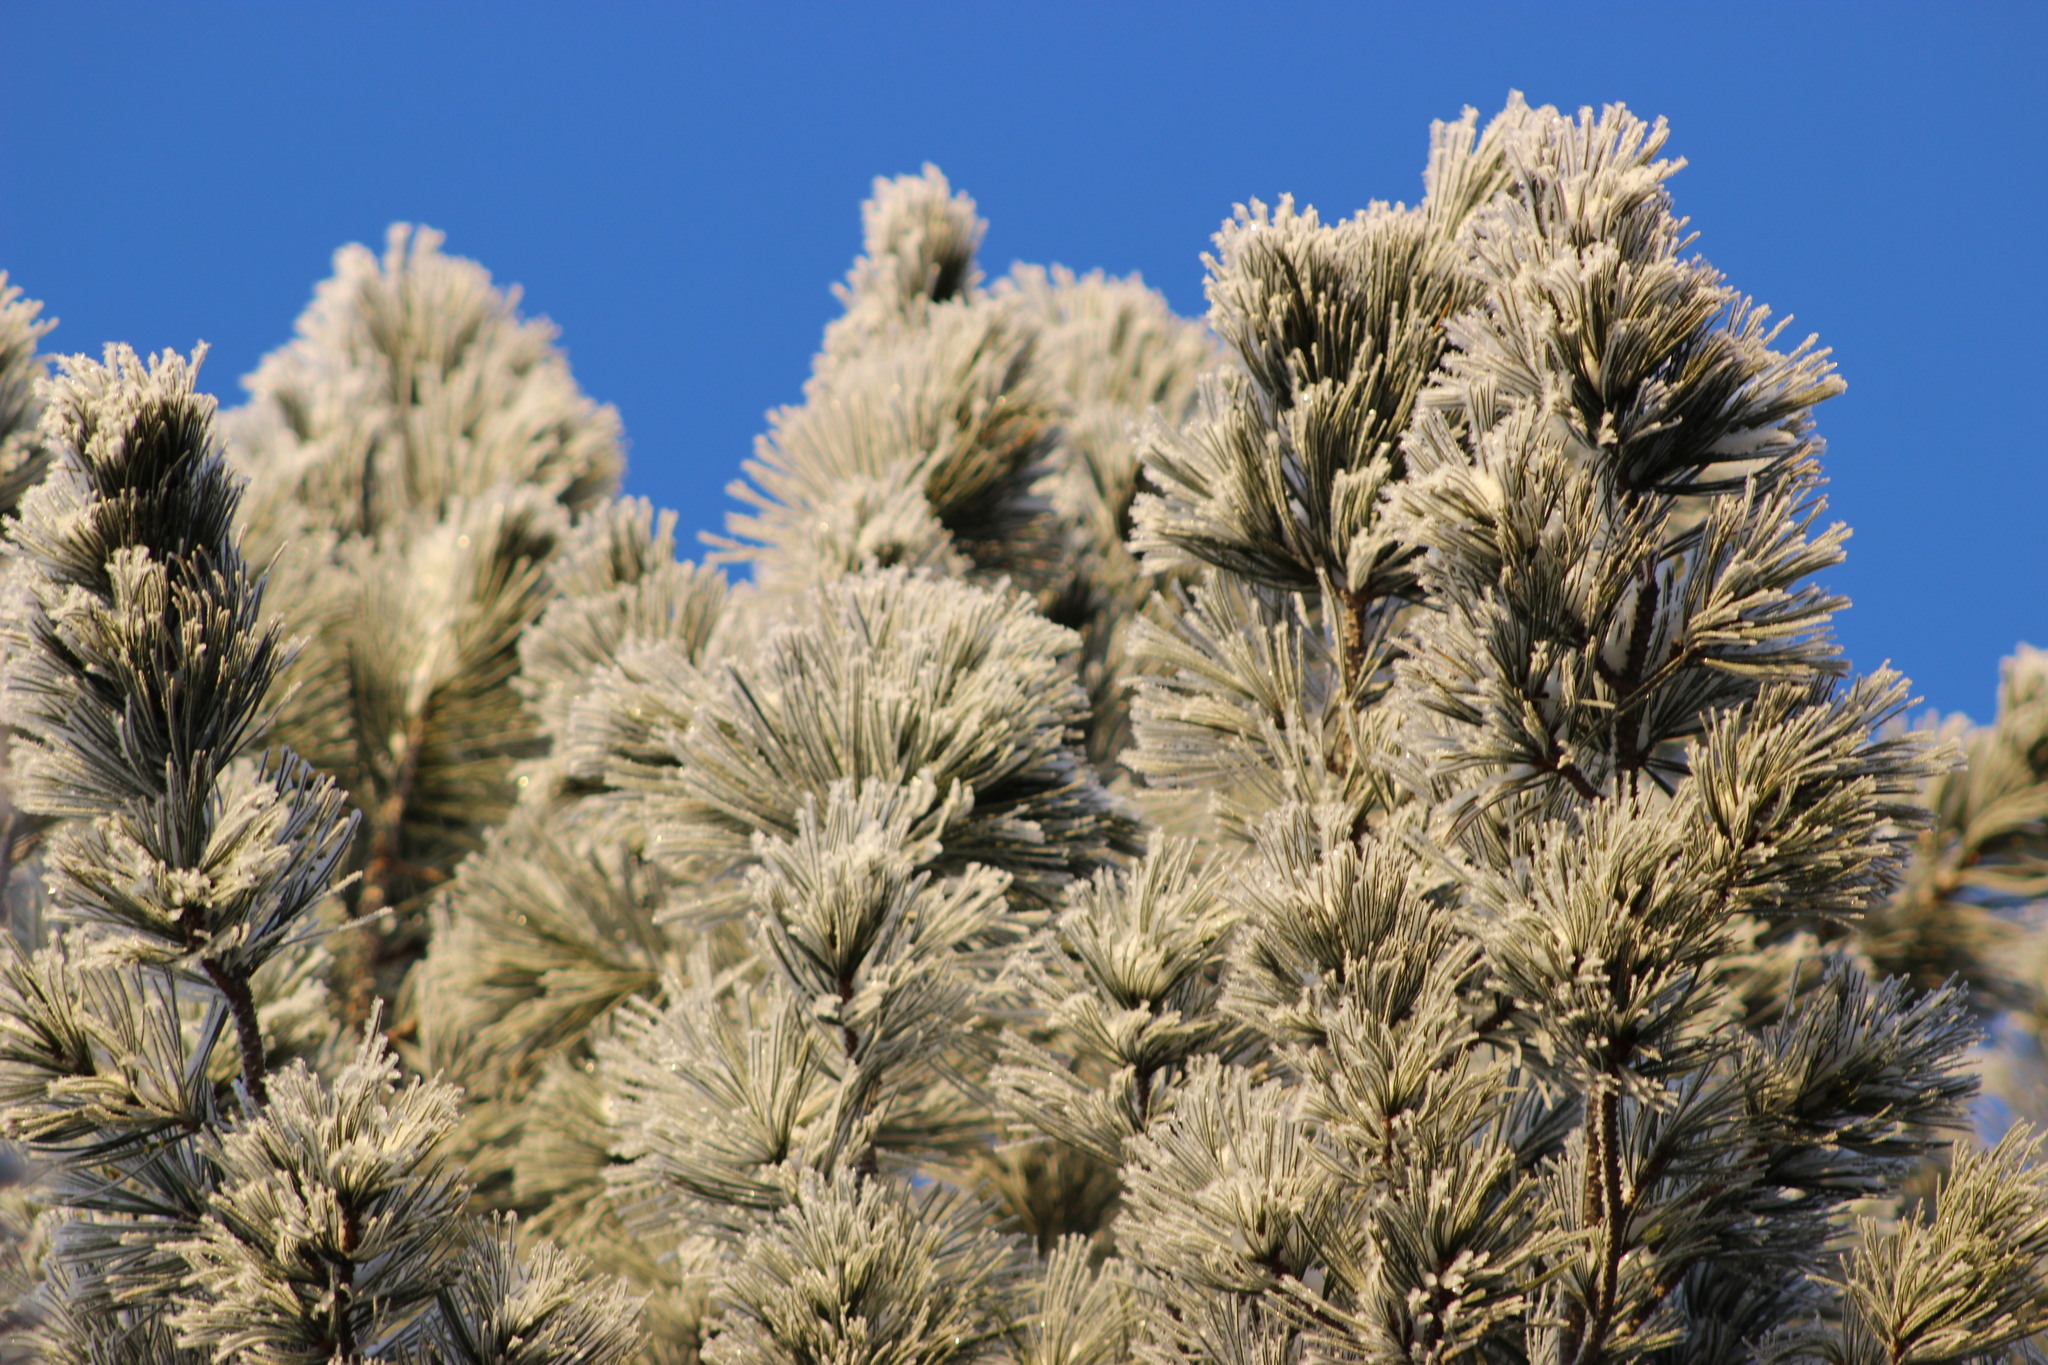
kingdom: Plantae
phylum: Tracheophyta
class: Pinopsida
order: Pinales
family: Pinaceae
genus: Pinus
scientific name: Pinus sibirica
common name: Siberian pine
